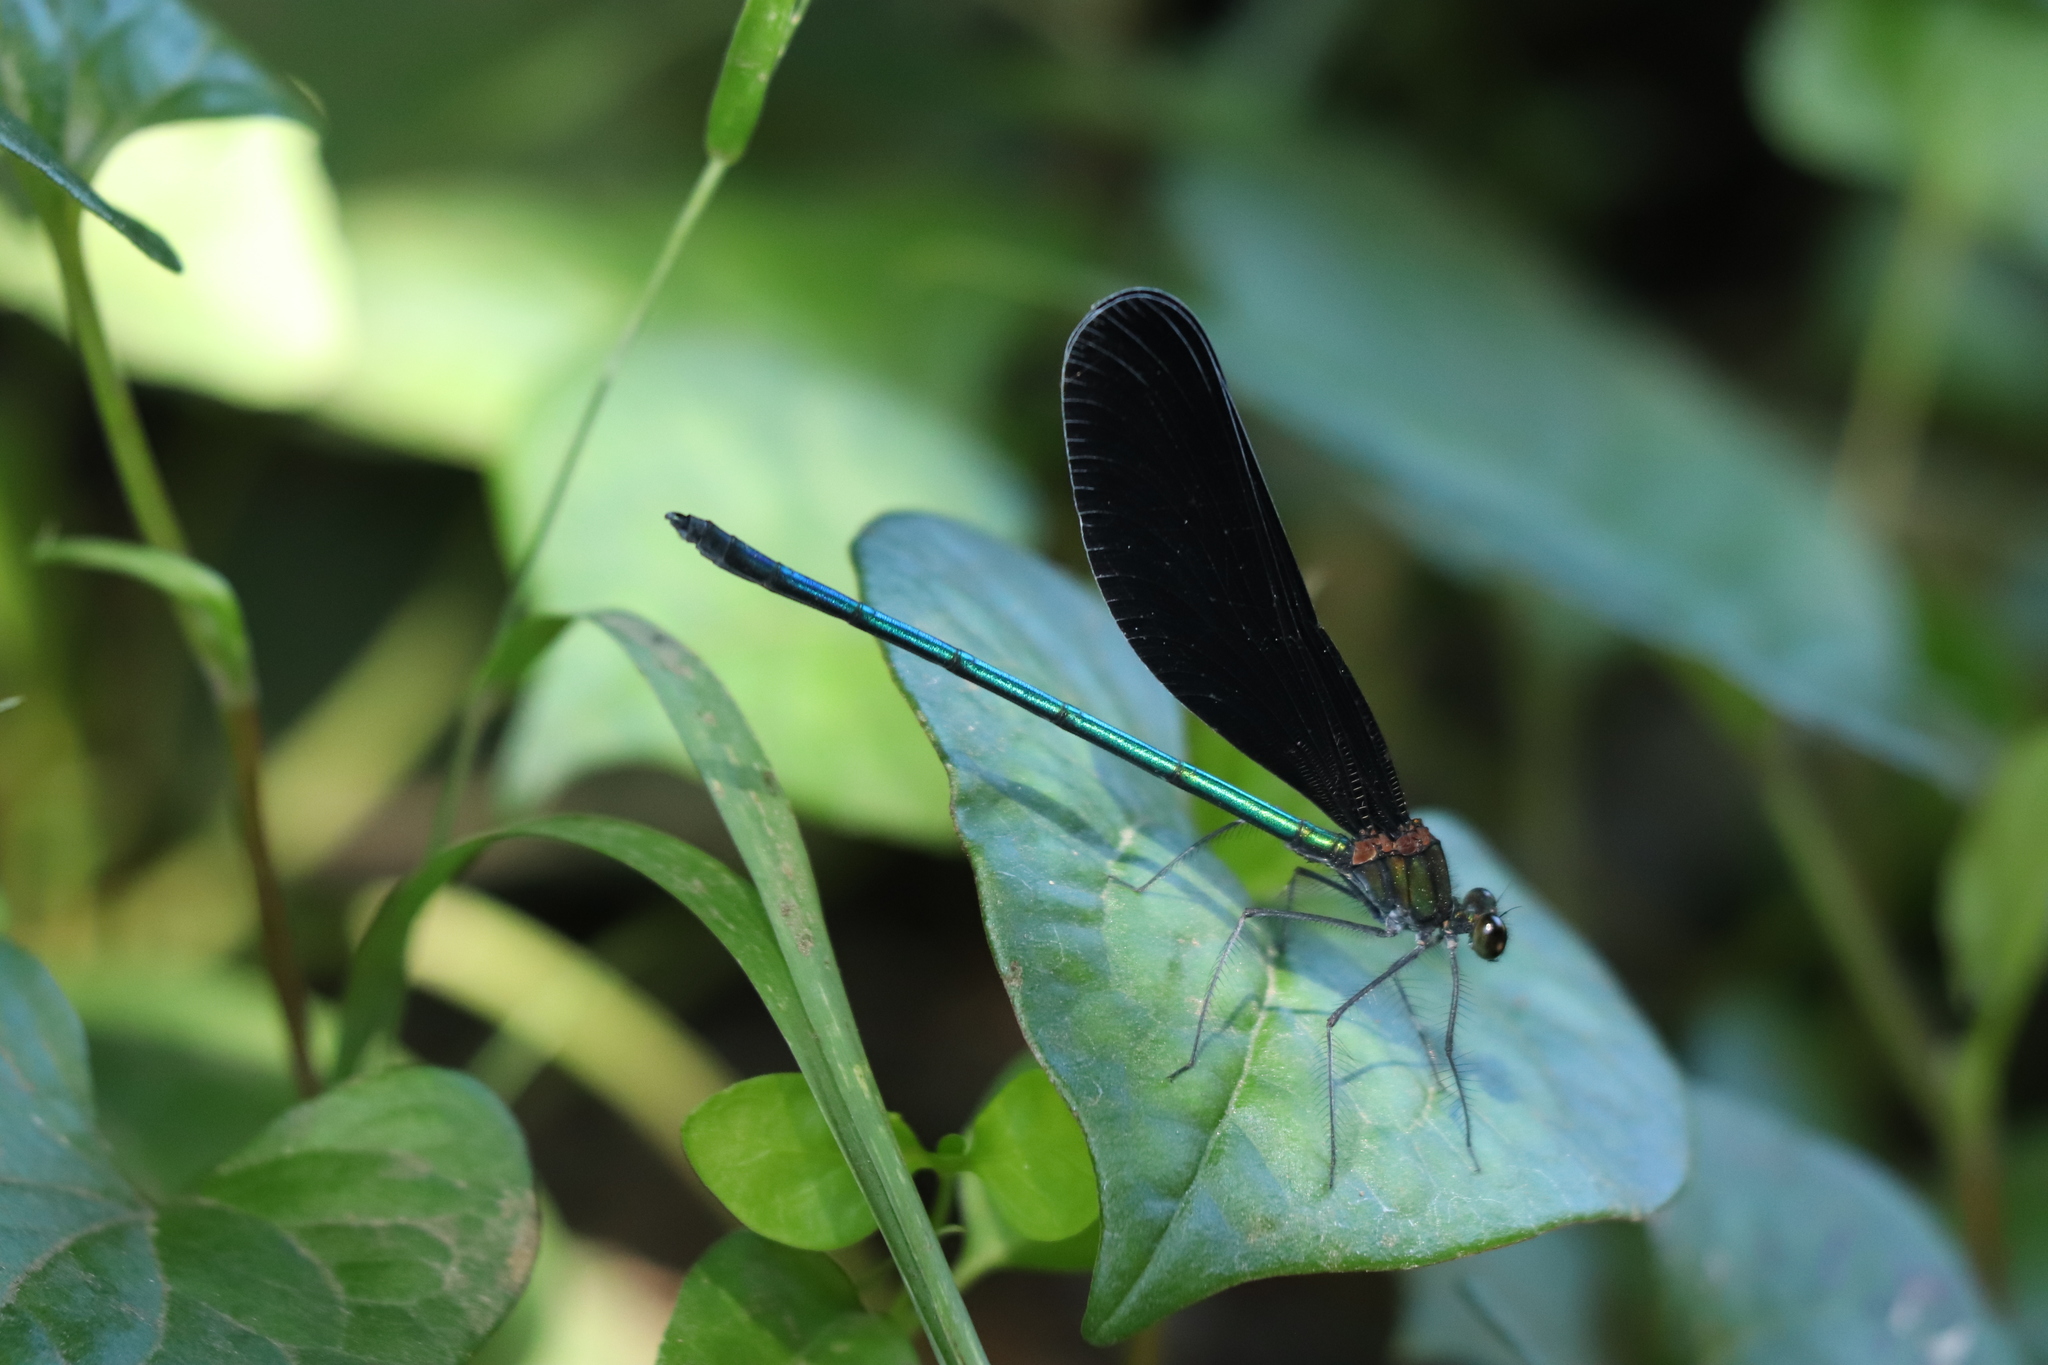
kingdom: Animalia
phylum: Arthropoda
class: Insecta
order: Odonata
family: Calopterygidae
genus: Atrocalopteryx
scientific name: Atrocalopteryx atrata
